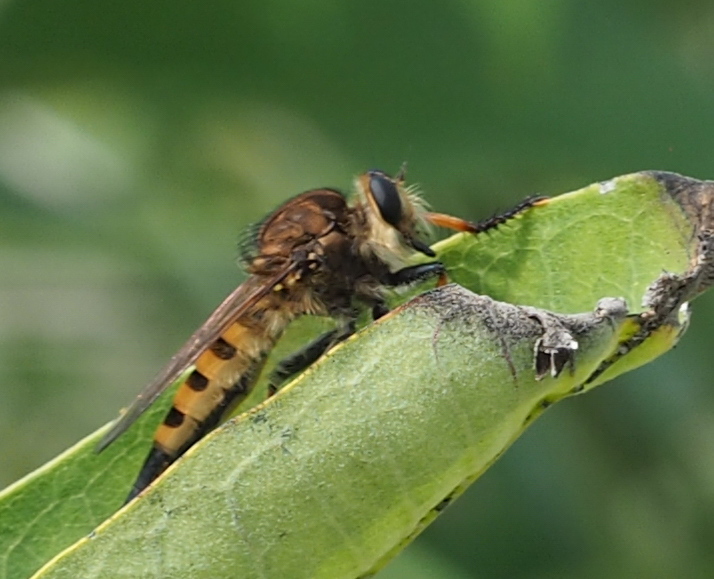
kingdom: Animalia
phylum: Arthropoda
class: Insecta
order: Diptera
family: Asilidae
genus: Promachus
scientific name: Promachus rufipes
